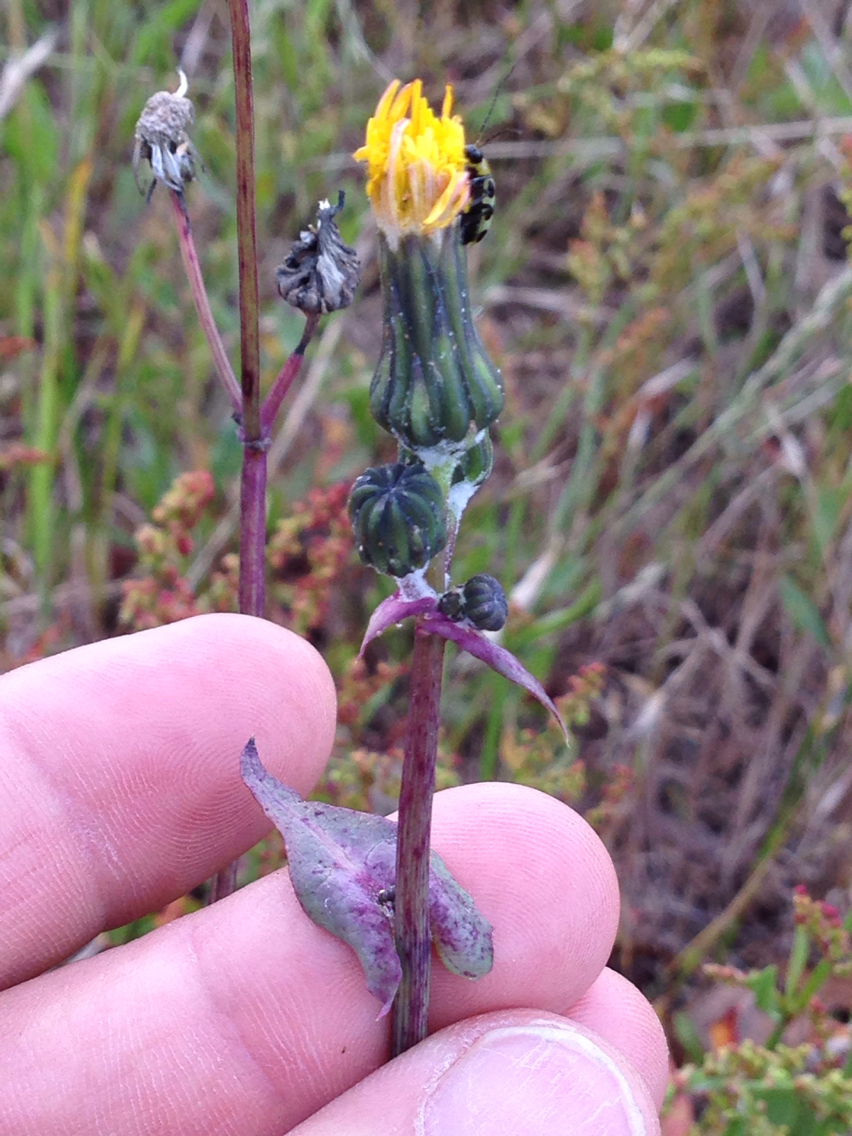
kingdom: Plantae
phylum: Tracheophyta
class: Magnoliopsida
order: Asterales
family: Asteraceae
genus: Sonchus
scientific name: Sonchus oleraceus
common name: Common sowthistle
